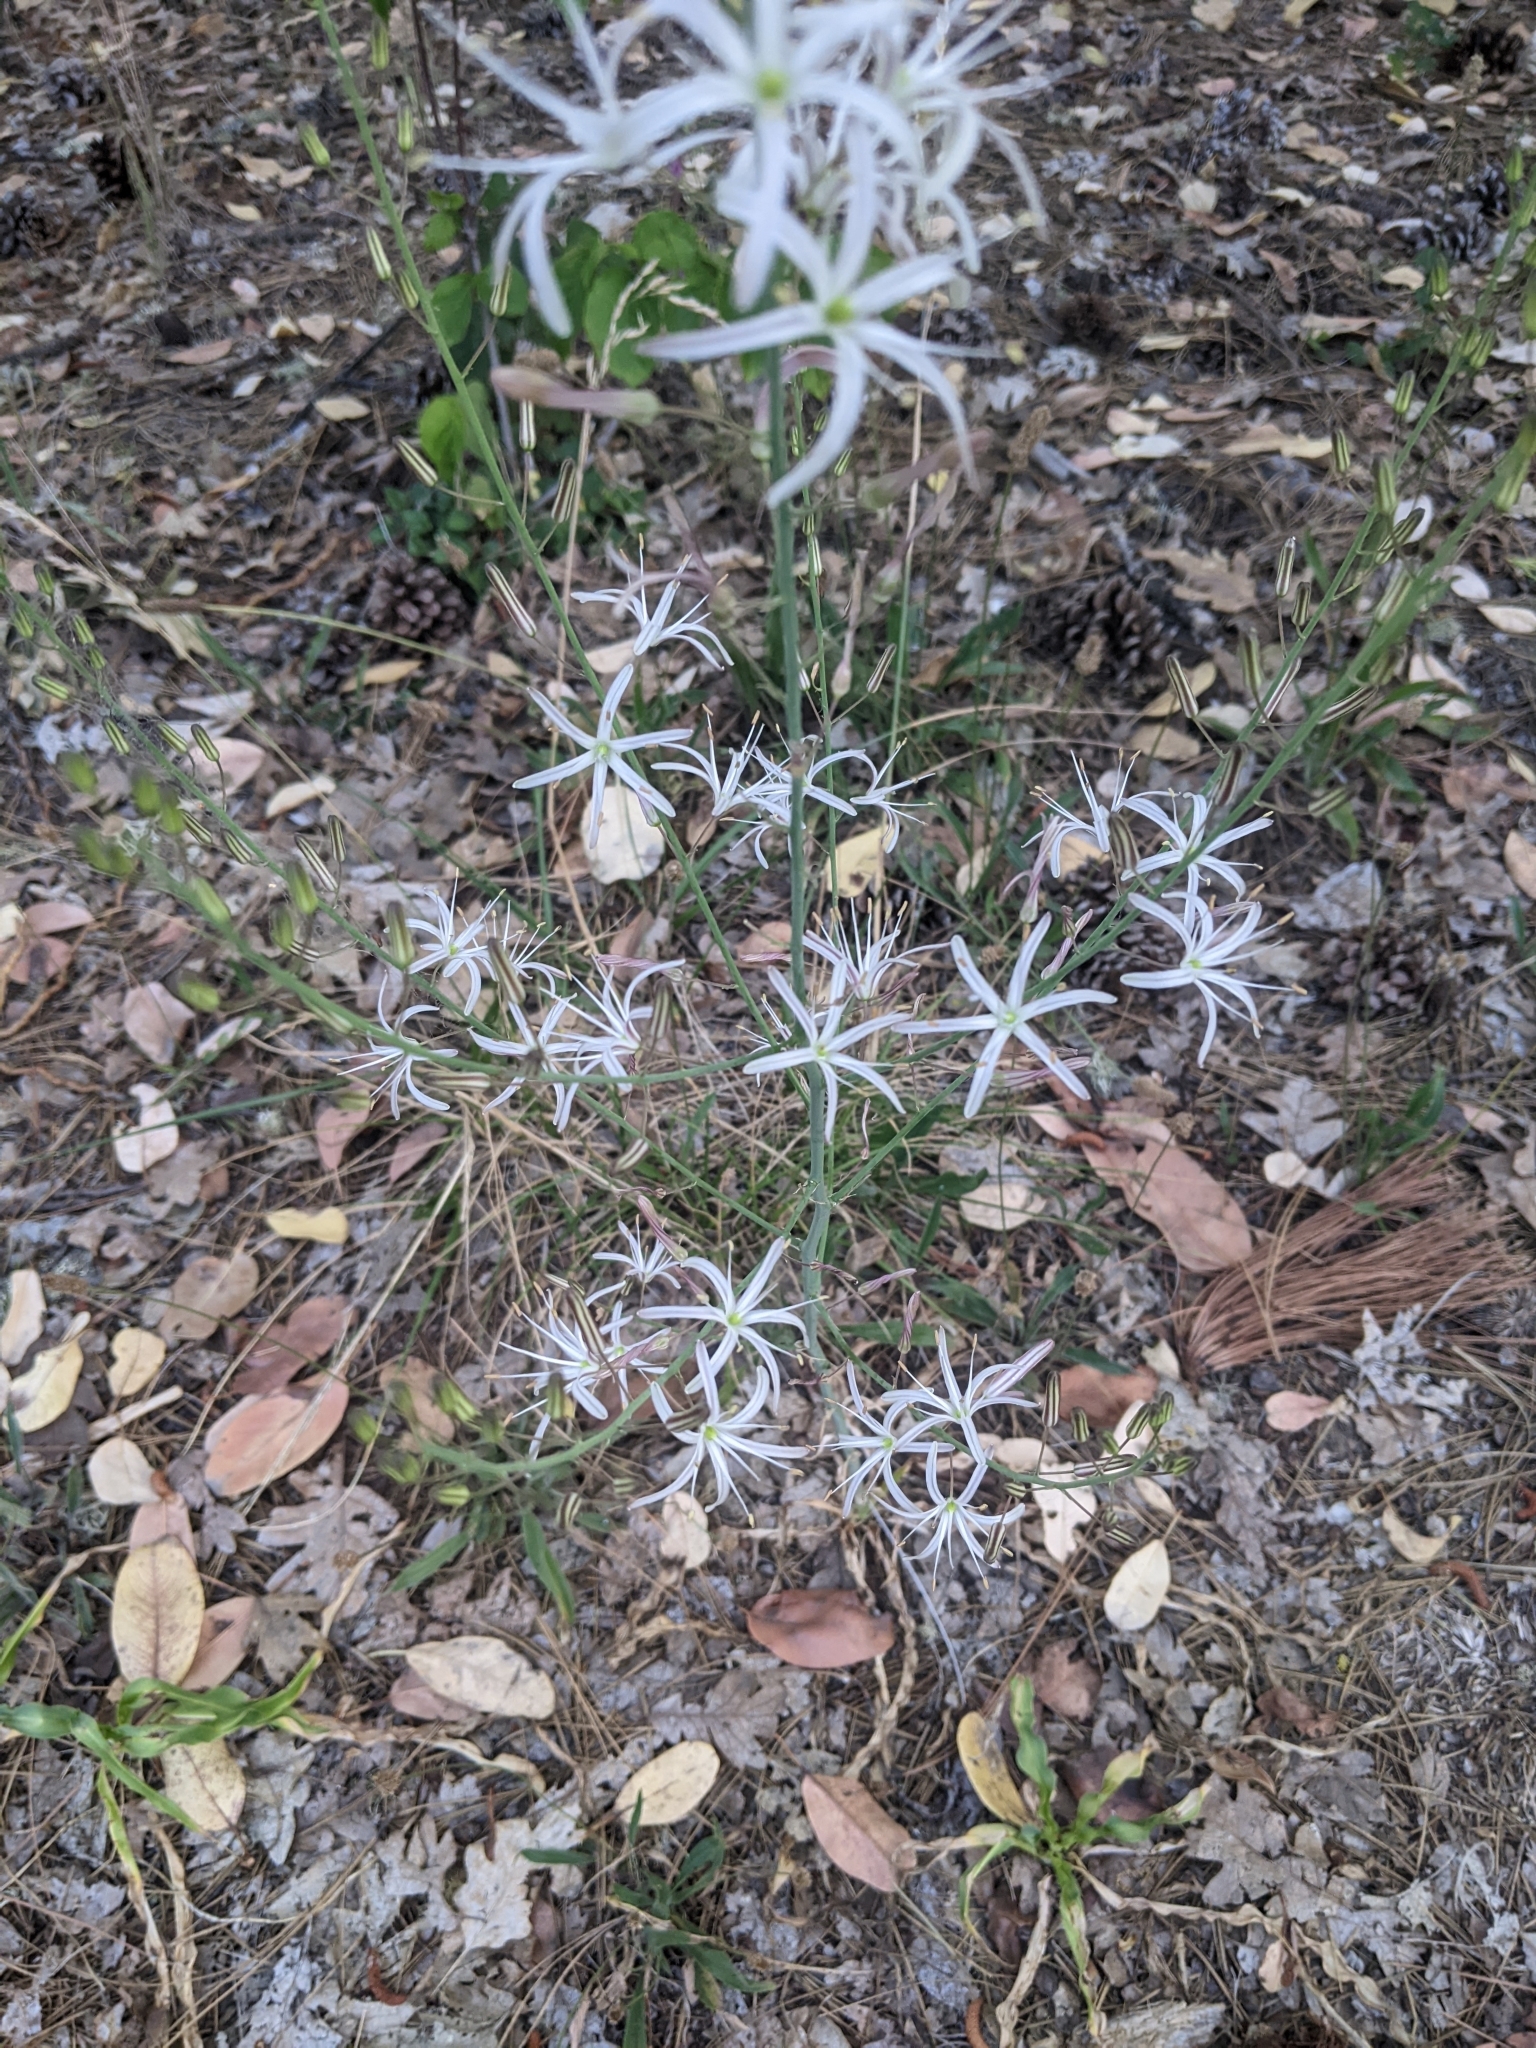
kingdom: Plantae
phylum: Tracheophyta
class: Liliopsida
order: Asparagales
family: Asparagaceae
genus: Chlorogalum
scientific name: Chlorogalum pomeridianum
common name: Amole
